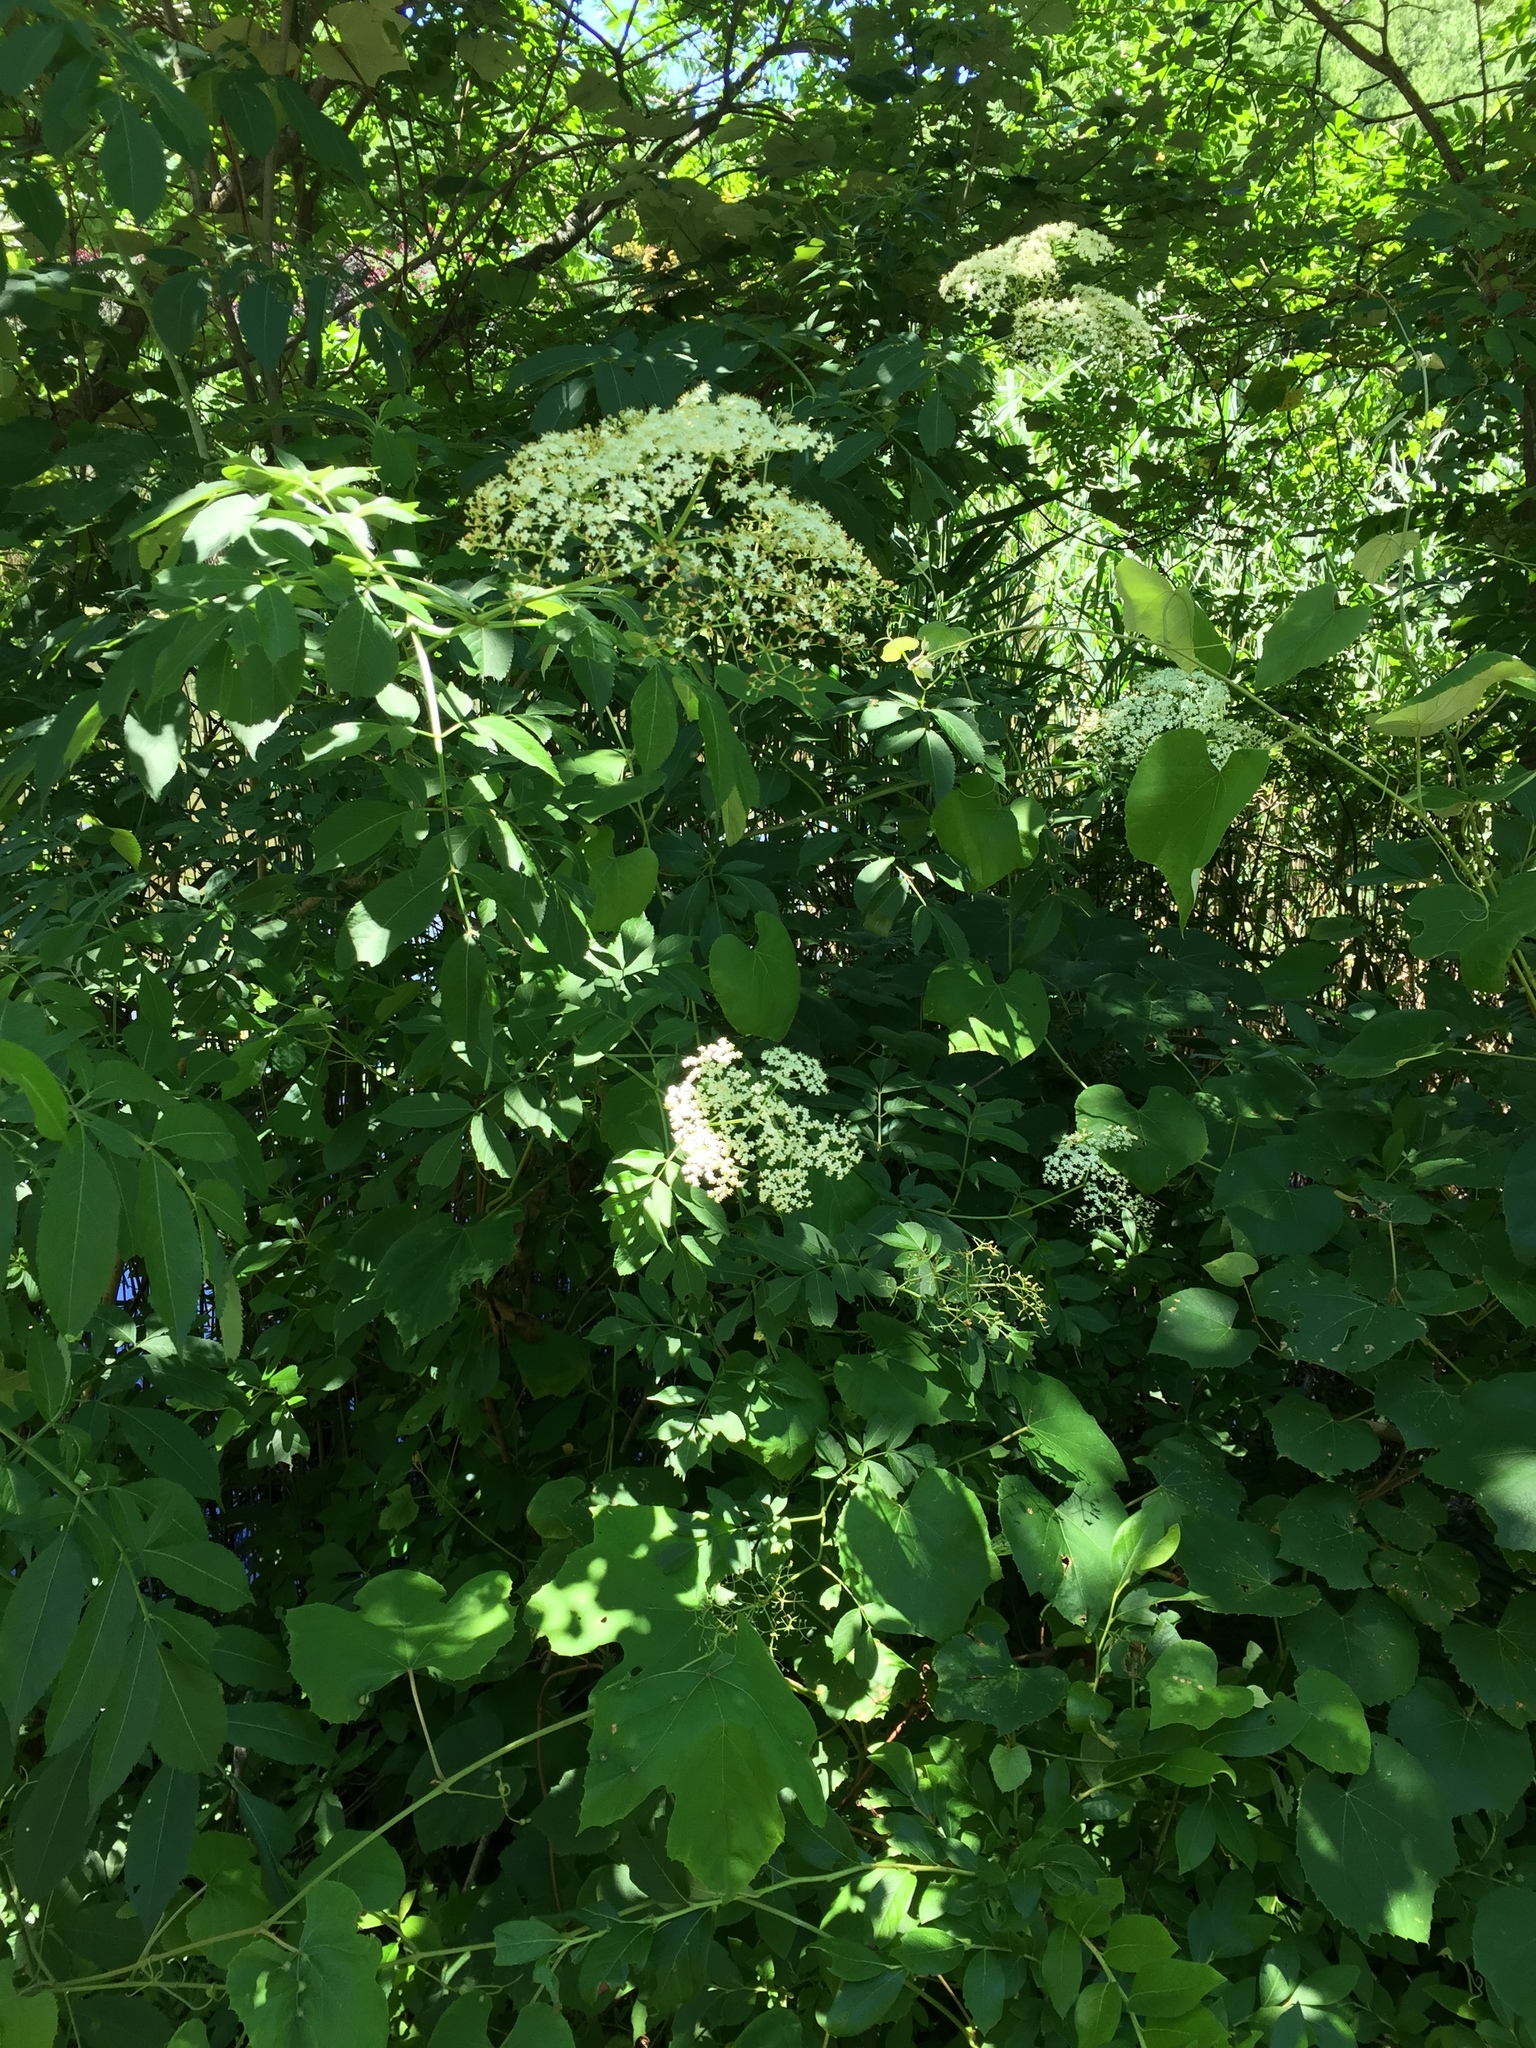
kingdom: Plantae
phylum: Tracheophyta
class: Magnoliopsida
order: Dipsacales
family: Viburnaceae
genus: Sambucus
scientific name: Sambucus canadensis
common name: American elder
